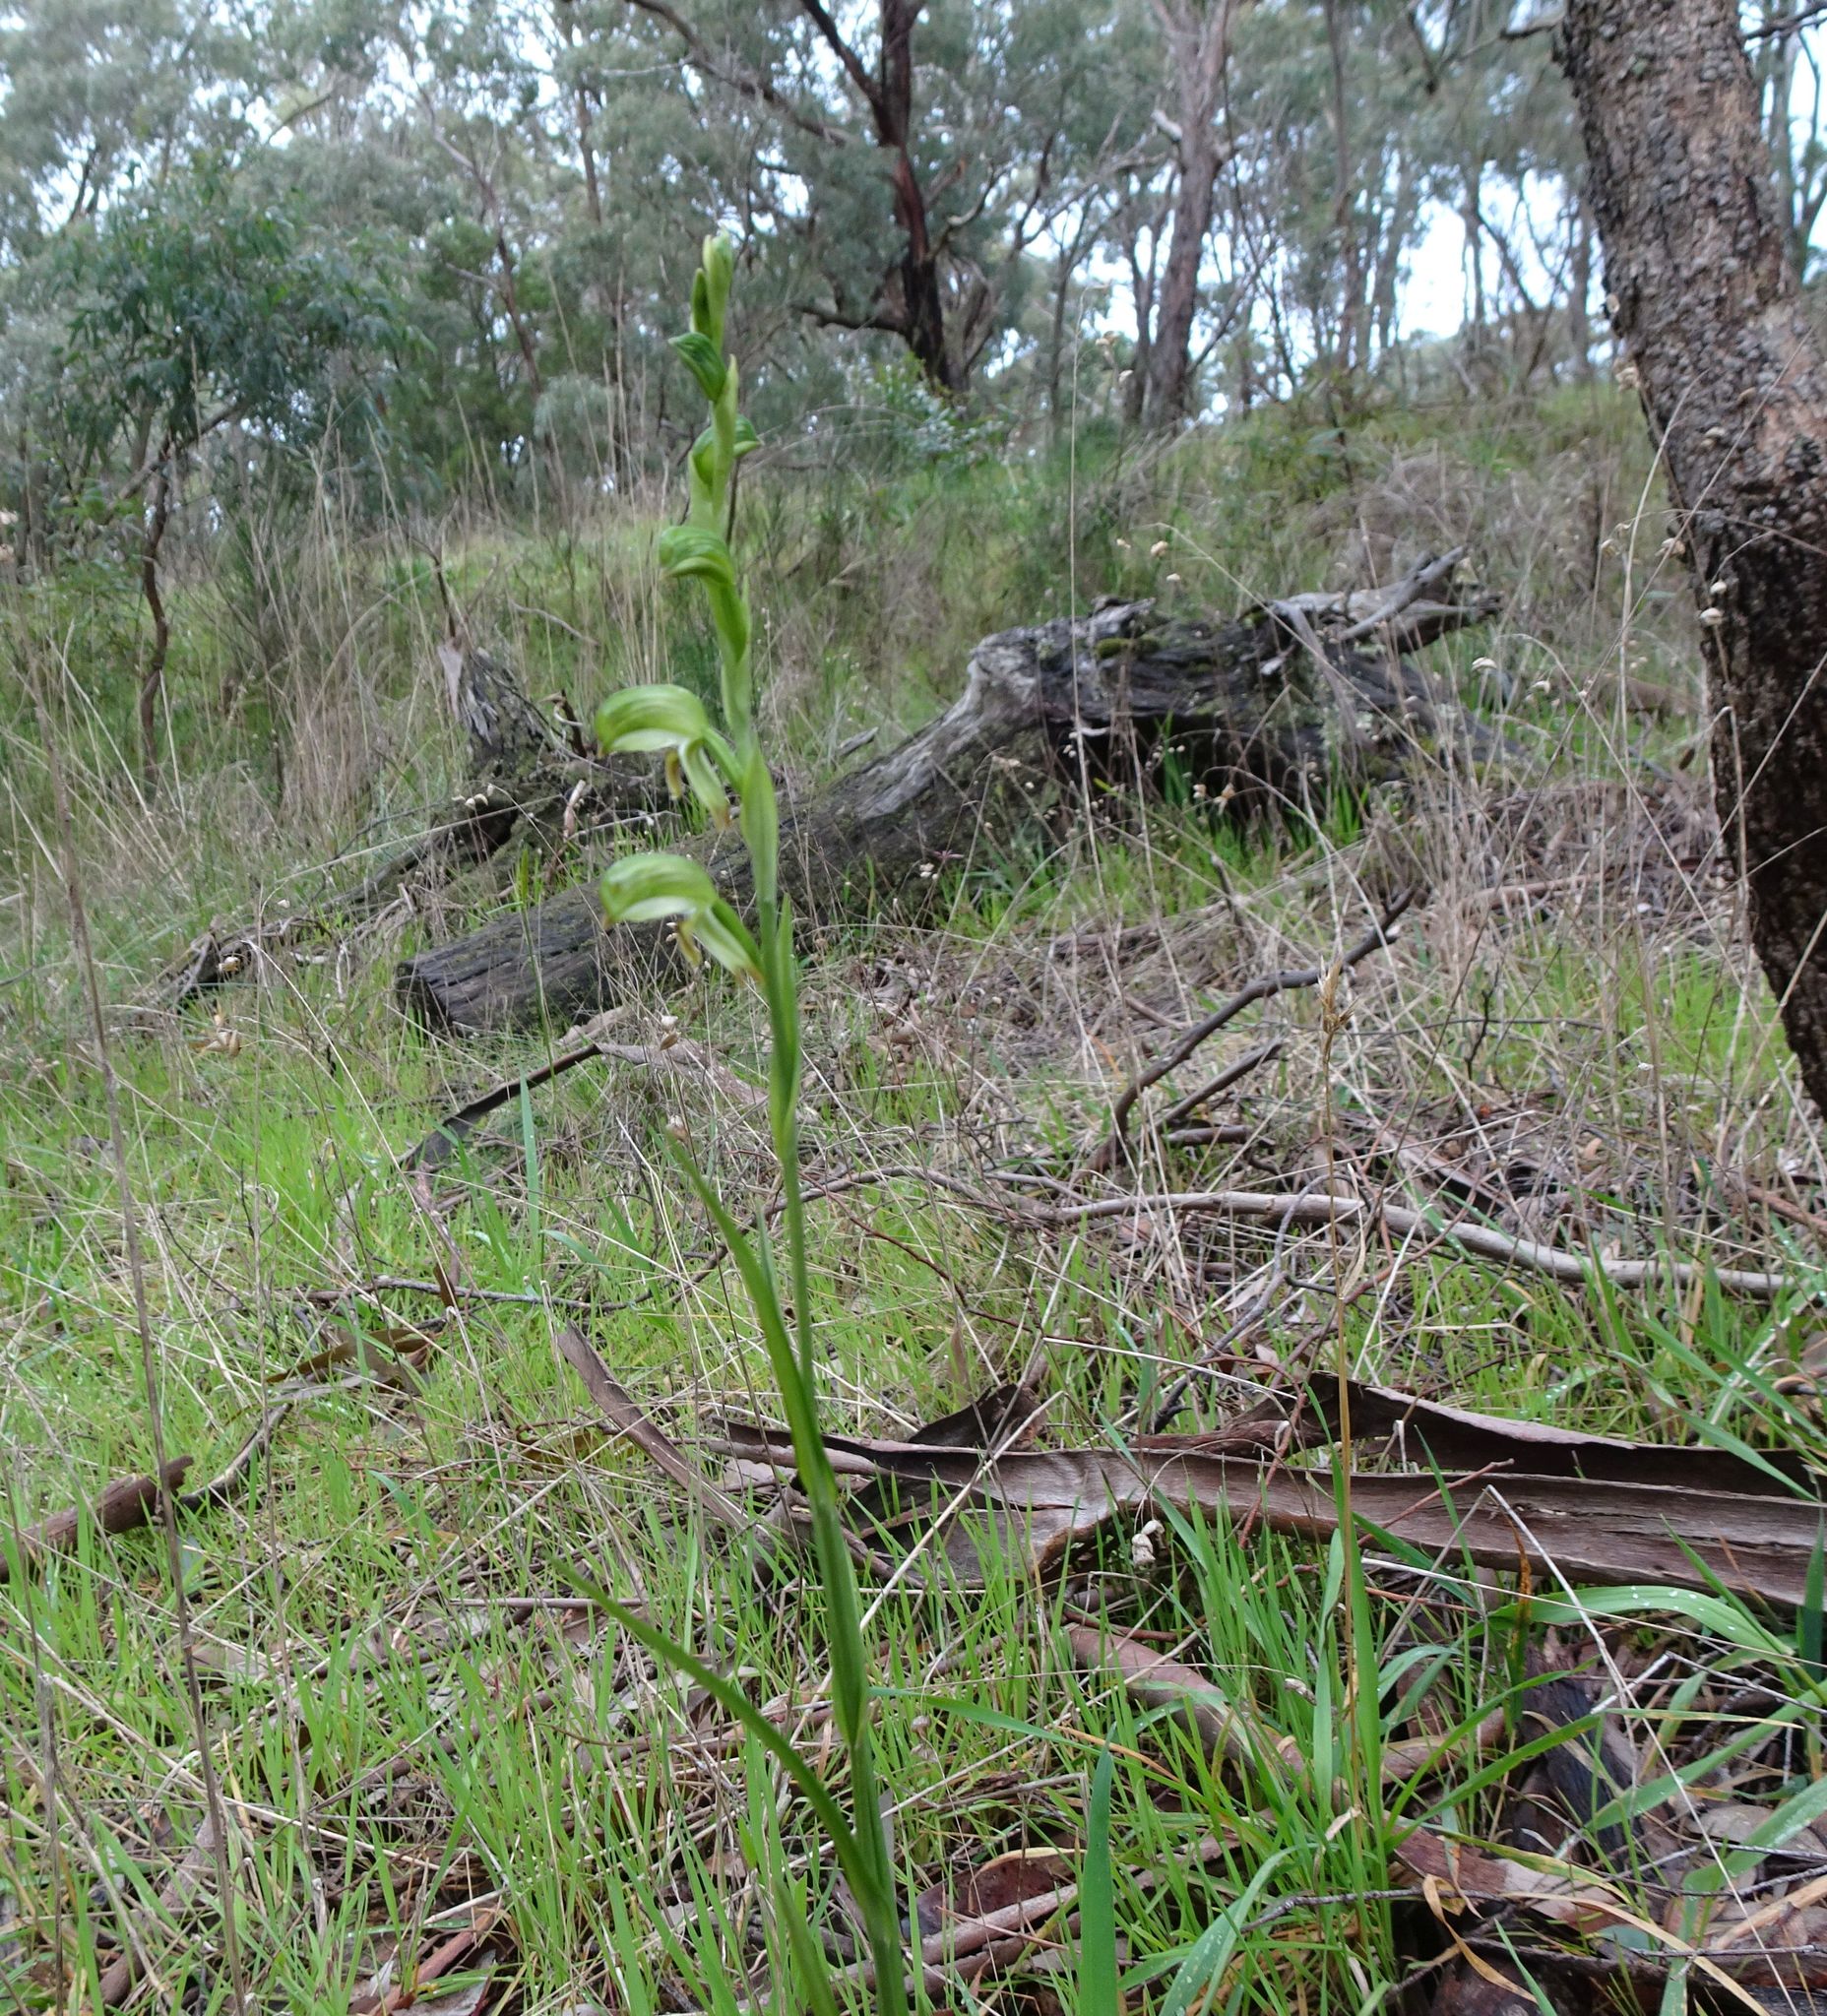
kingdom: Plantae
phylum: Tracheophyta
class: Liliopsida
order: Asparagales
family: Orchidaceae
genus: Pterostylis
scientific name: Pterostylis melagramma
